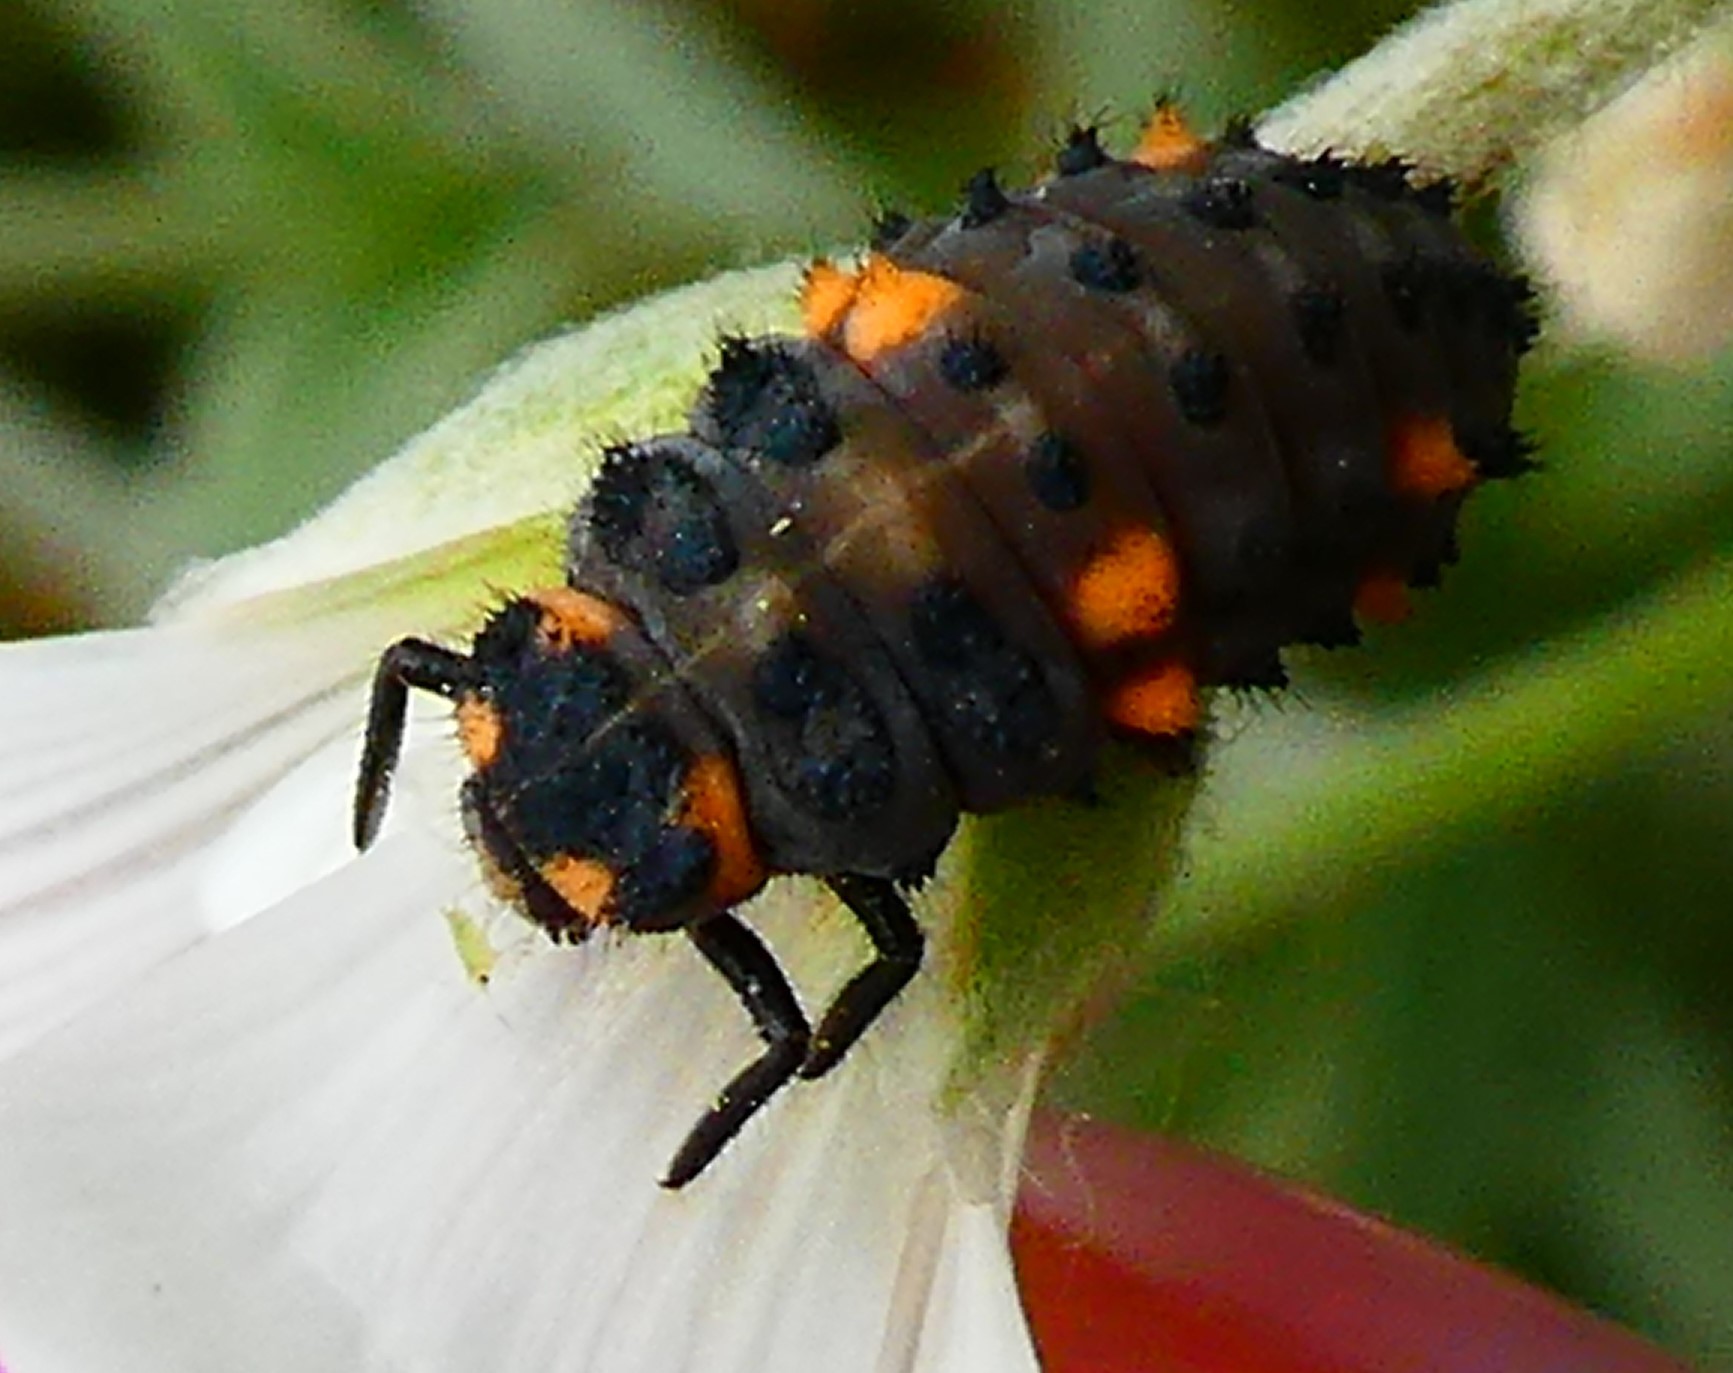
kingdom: Animalia
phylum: Arthropoda
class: Insecta
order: Coleoptera
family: Coccinellidae
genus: Coccinella
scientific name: Coccinella septempunctata
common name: Sevenspotted lady beetle
